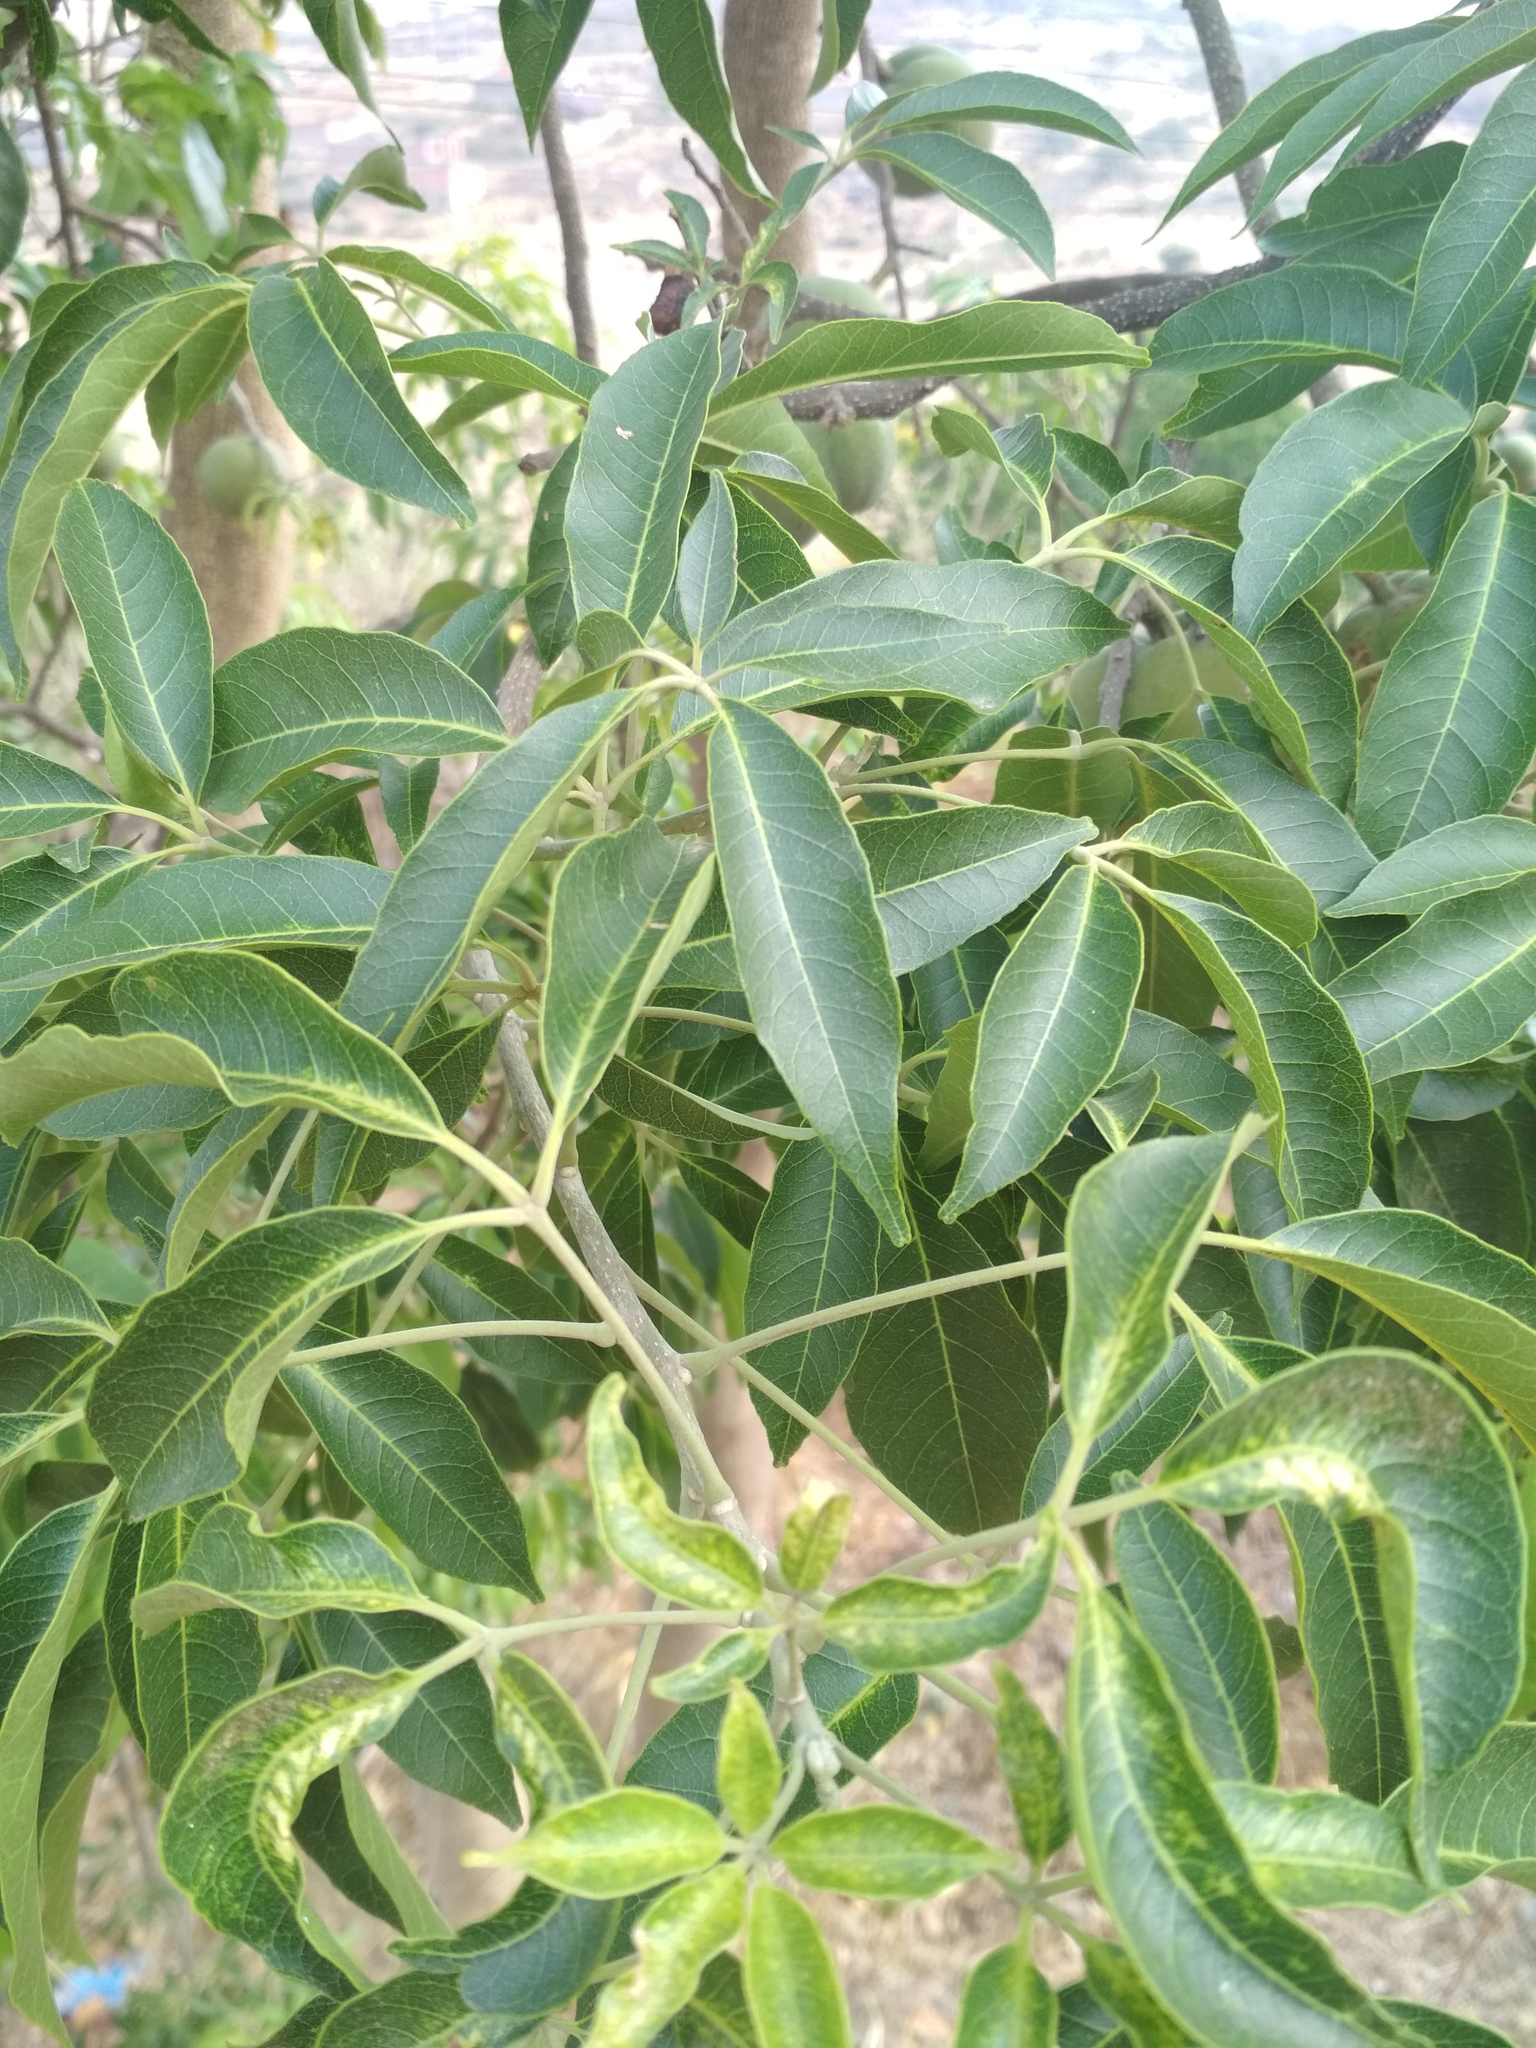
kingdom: Plantae
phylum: Tracheophyta
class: Magnoliopsida
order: Sapindales
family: Rutaceae
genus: Casimiroa
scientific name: Casimiroa edulis
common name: Mexican-apple
